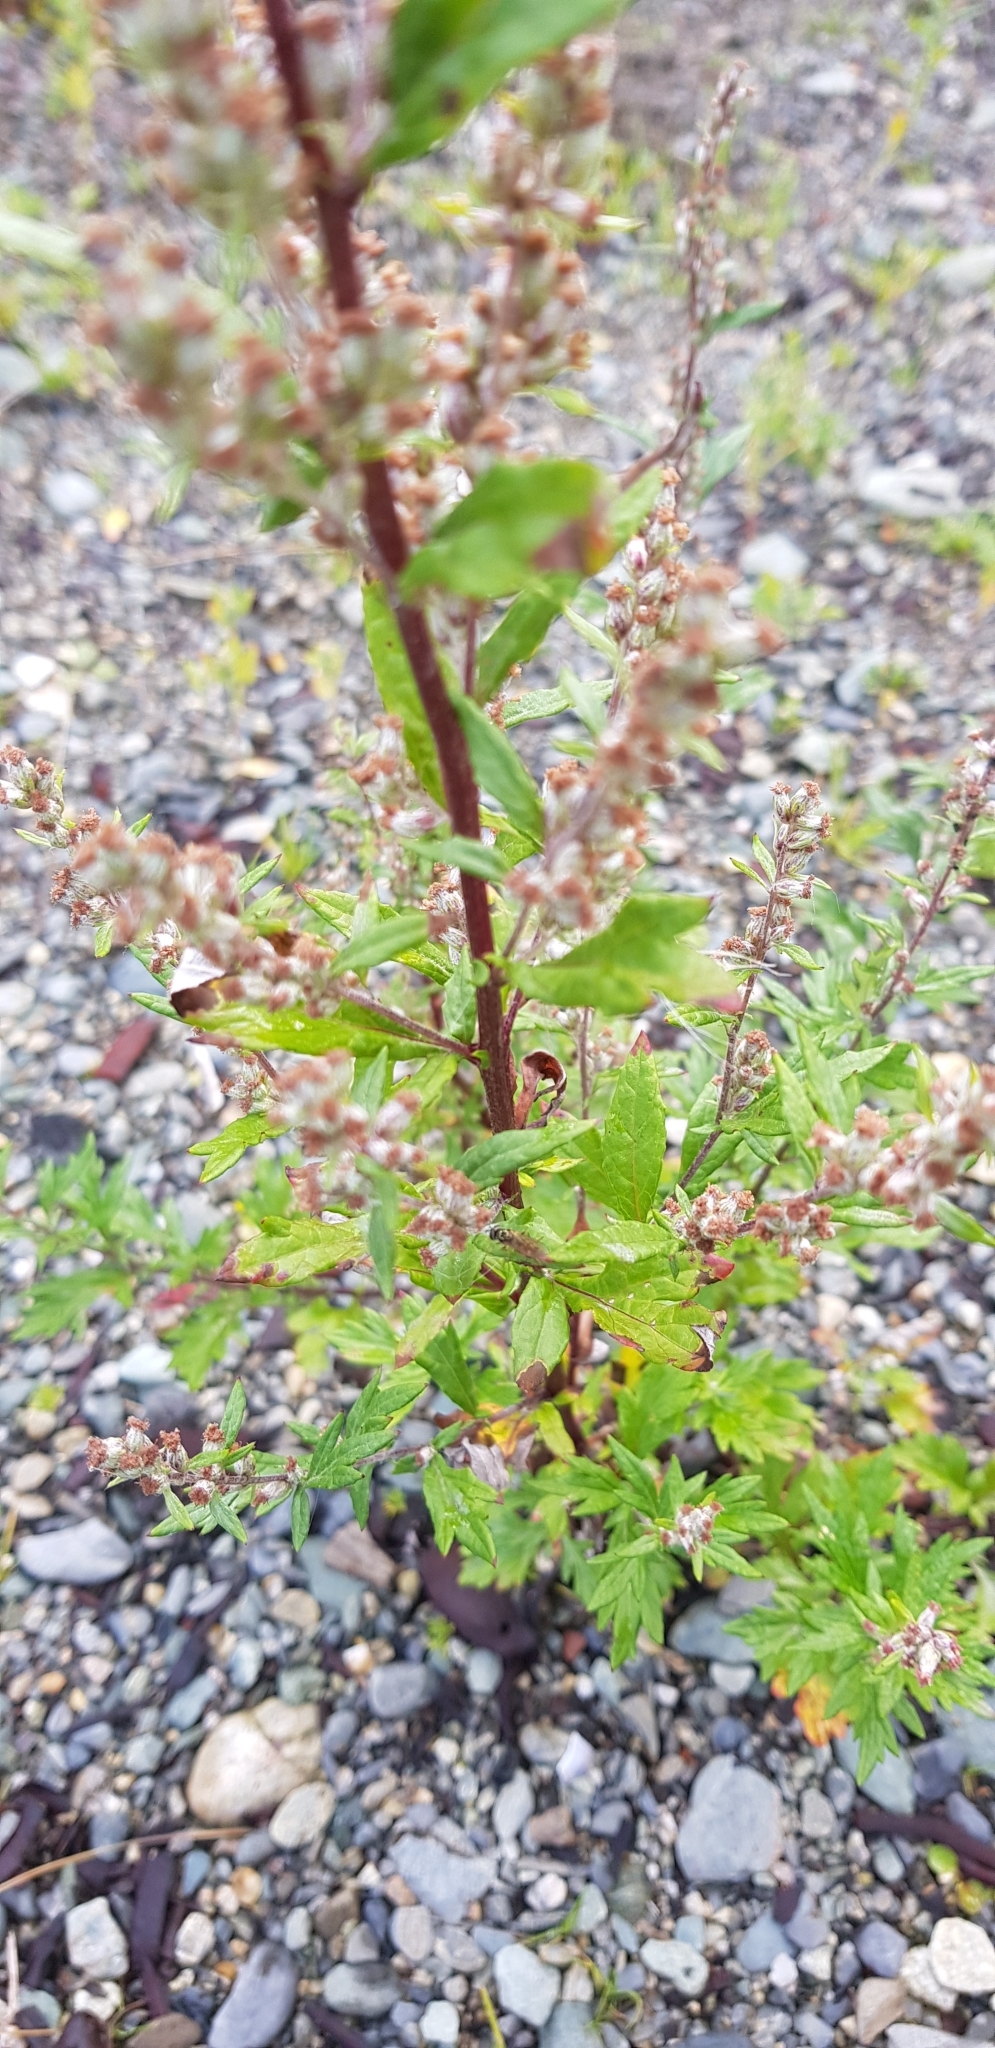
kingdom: Plantae
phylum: Tracheophyta
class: Magnoliopsida
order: Asterales
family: Asteraceae
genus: Artemisia
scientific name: Artemisia vulgaris
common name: Mugwort
